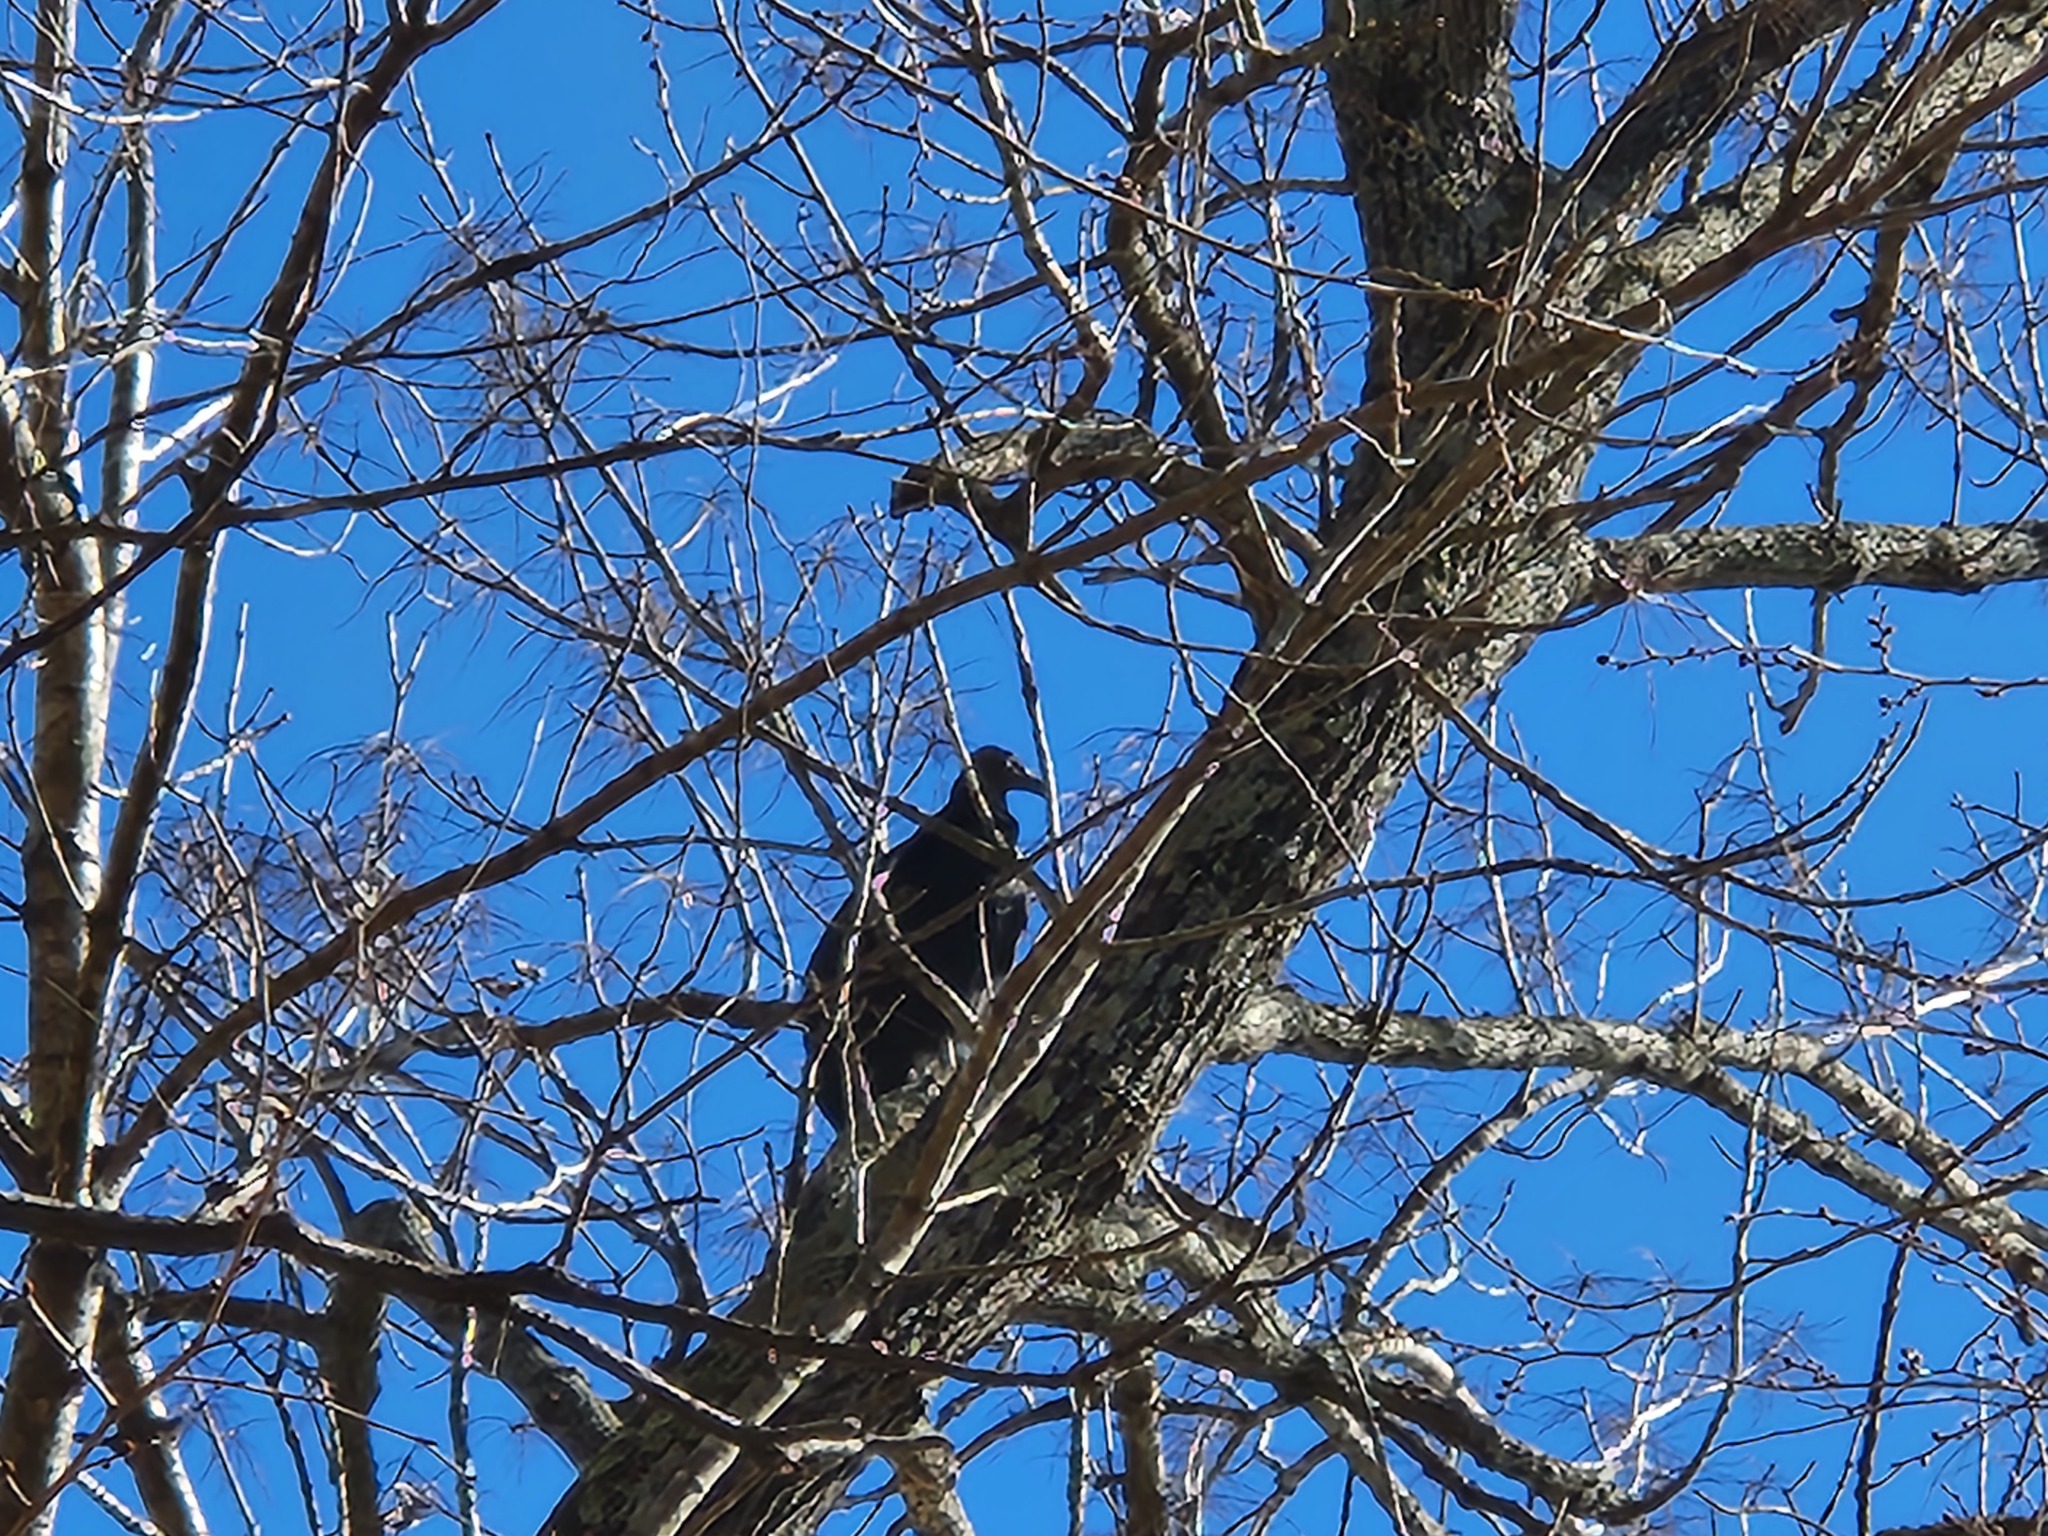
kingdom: Animalia
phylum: Chordata
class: Aves
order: Accipitriformes
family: Cathartidae
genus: Coragyps
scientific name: Coragyps atratus
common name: Black vulture
